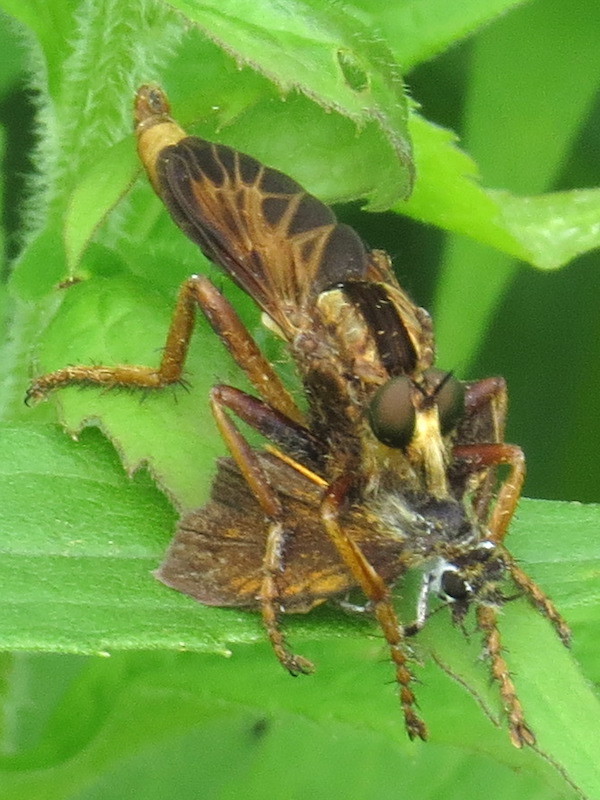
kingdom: Animalia
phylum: Arthropoda
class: Insecta
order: Diptera
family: Asilidae
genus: Asilus
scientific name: Asilus sericeus
